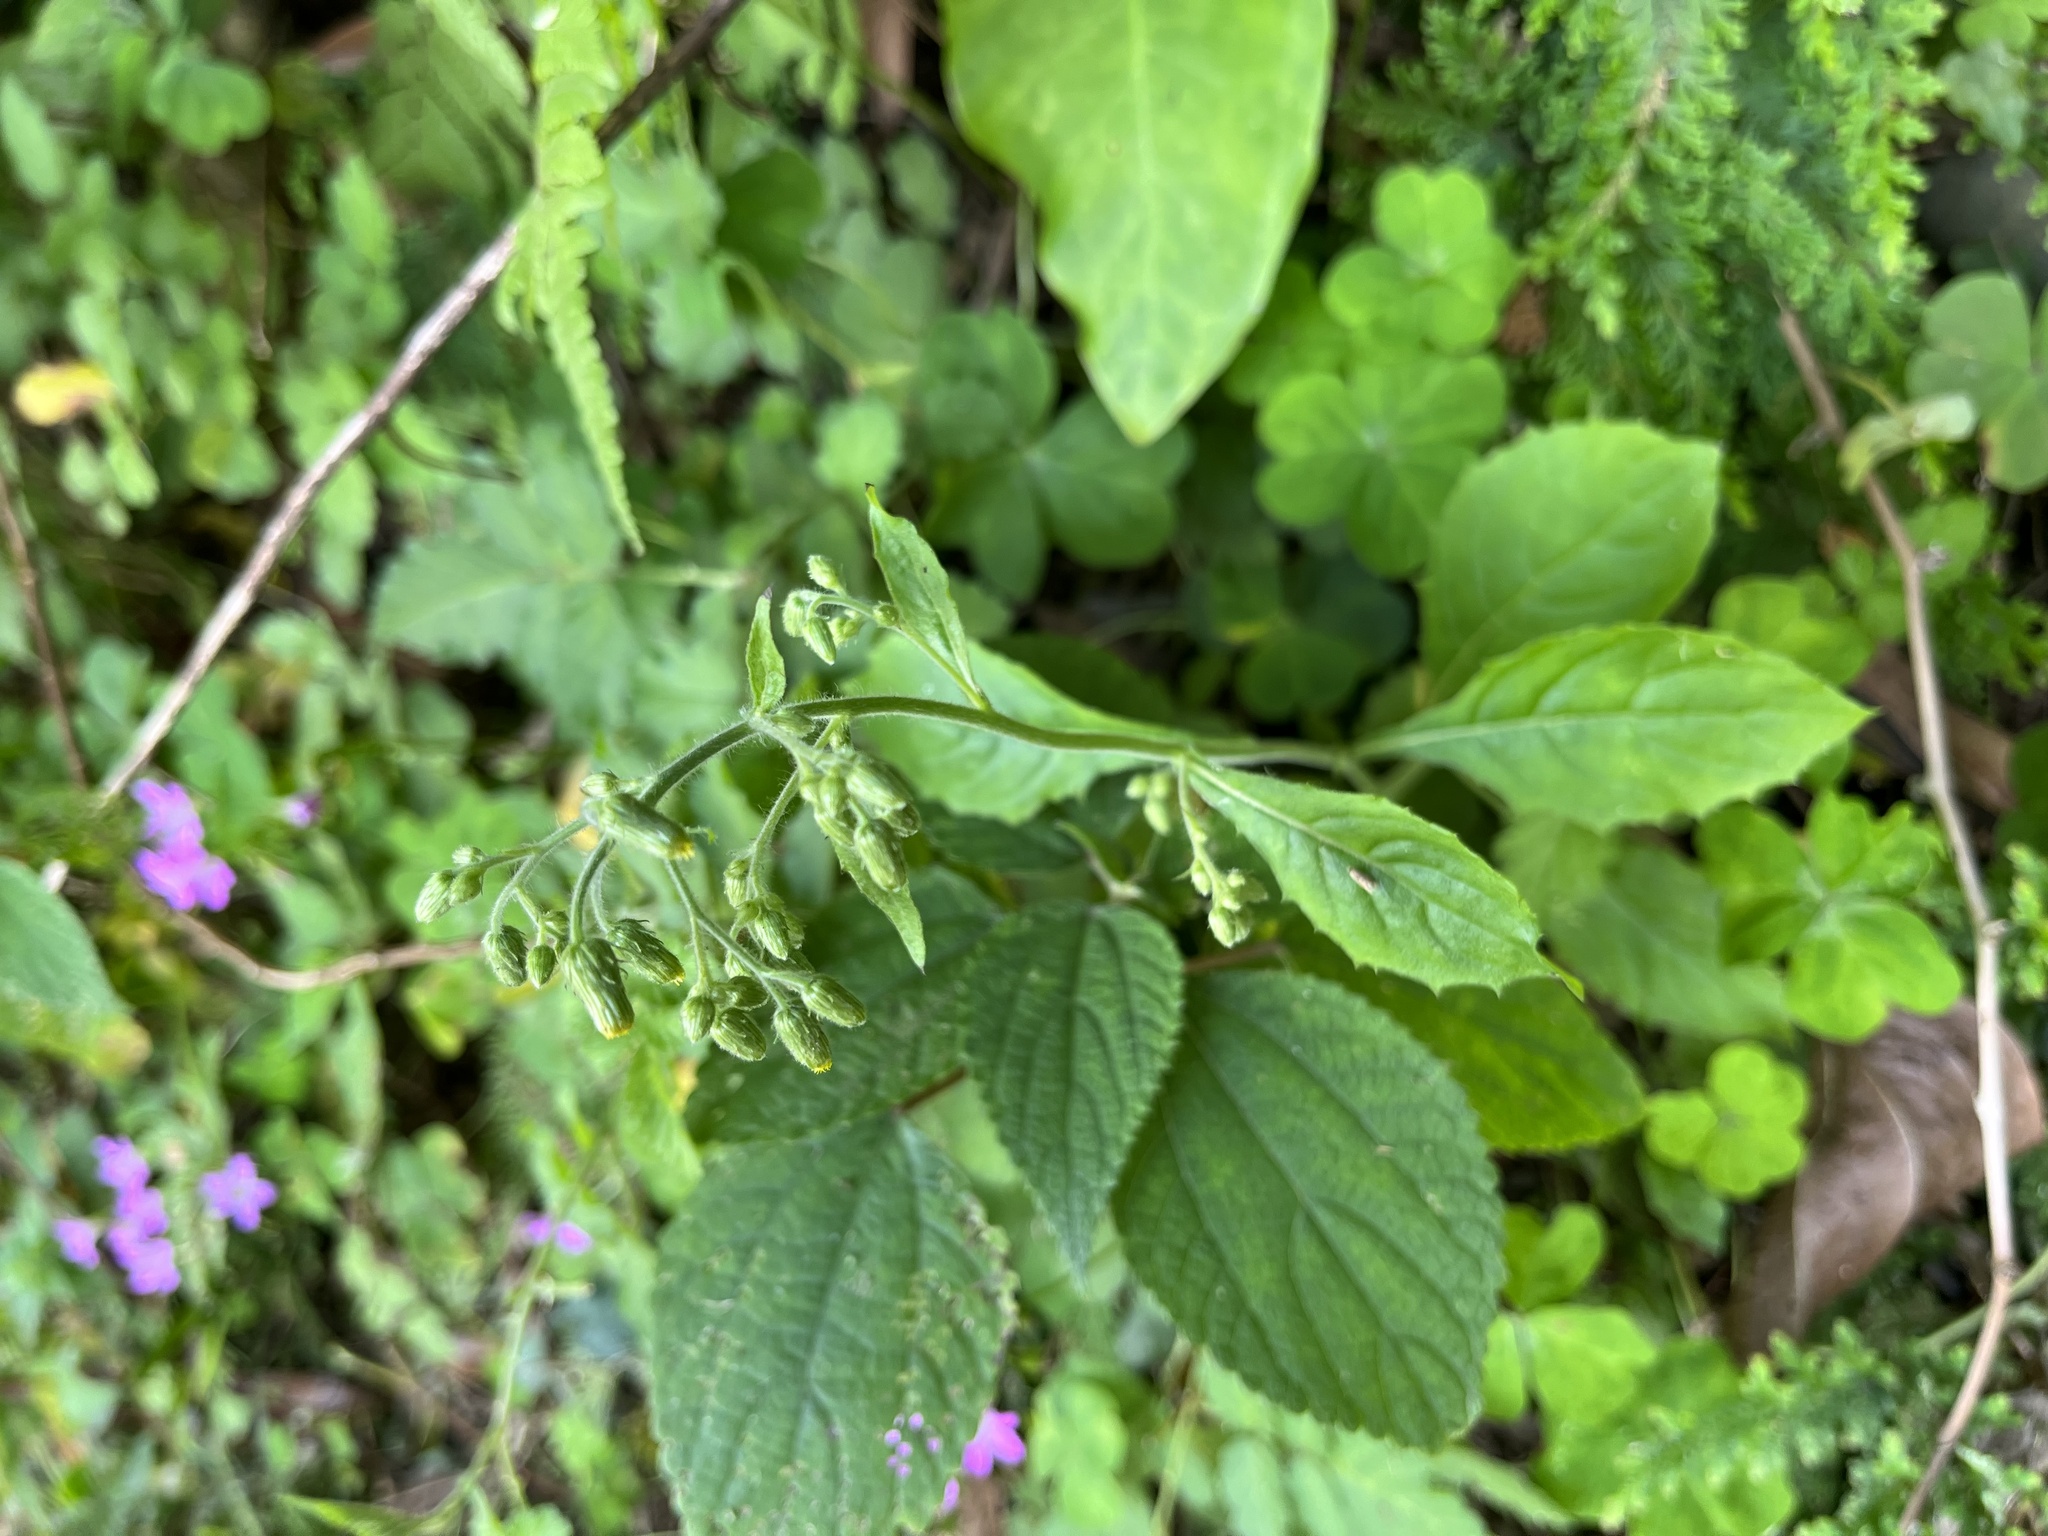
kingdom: Plantae
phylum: Tracheophyta
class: Magnoliopsida
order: Asterales
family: Asteraceae
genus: Blumea
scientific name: Blumea sinuata
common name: Cutleaf false oxtongue
